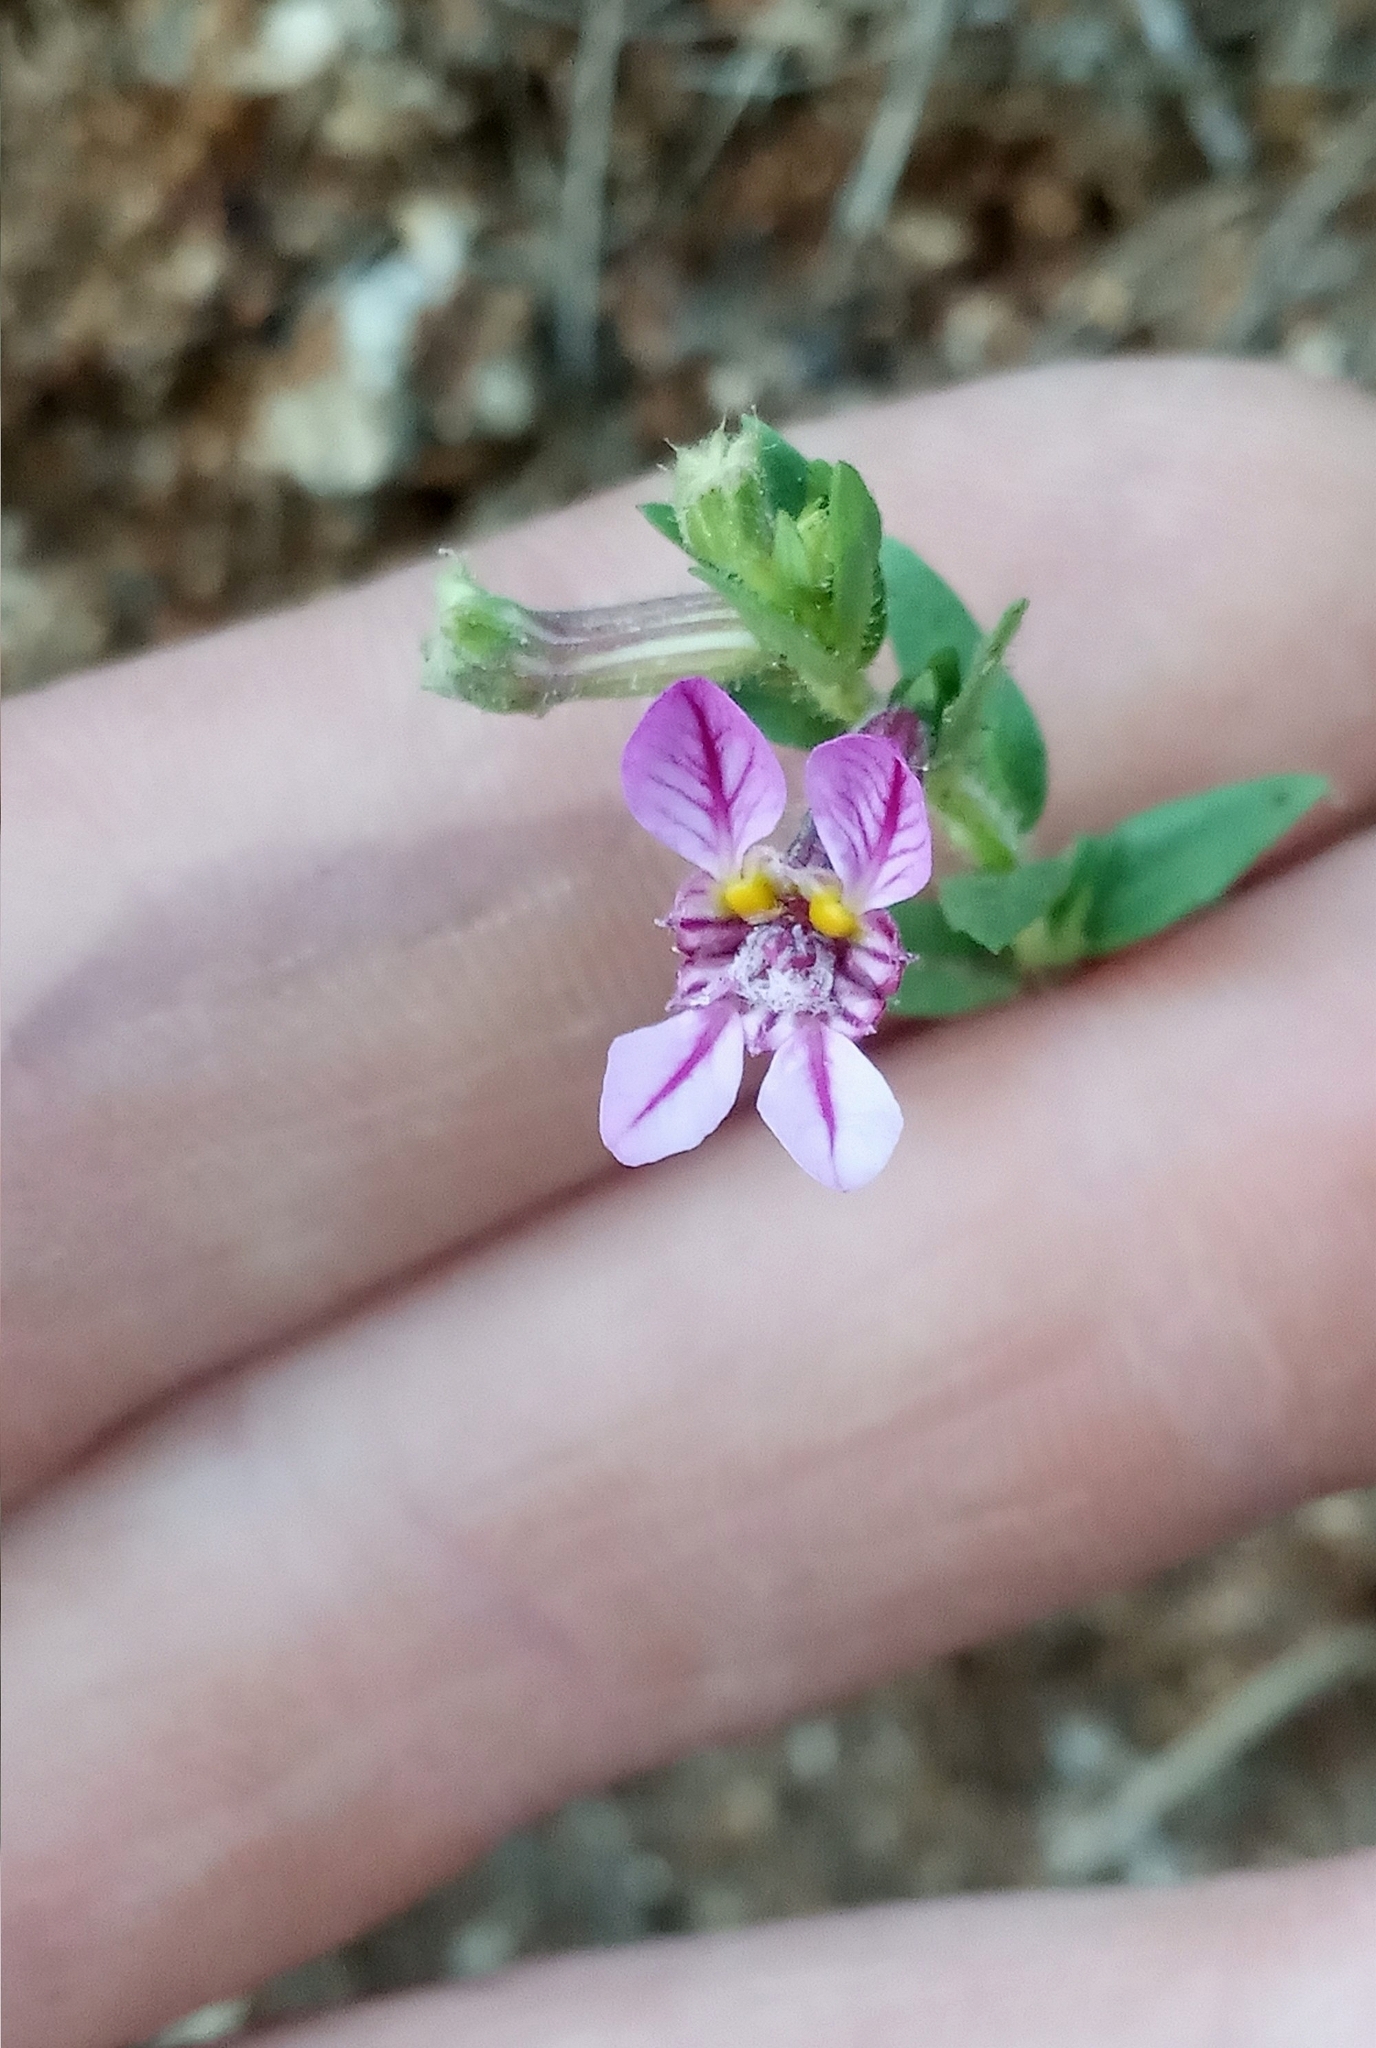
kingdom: Plantae
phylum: Tracheophyta
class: Magnoliopsida
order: Myrtales
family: Lythraceae
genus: Cuphea
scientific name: Cuphea glutinosa
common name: Sticky waxweed
